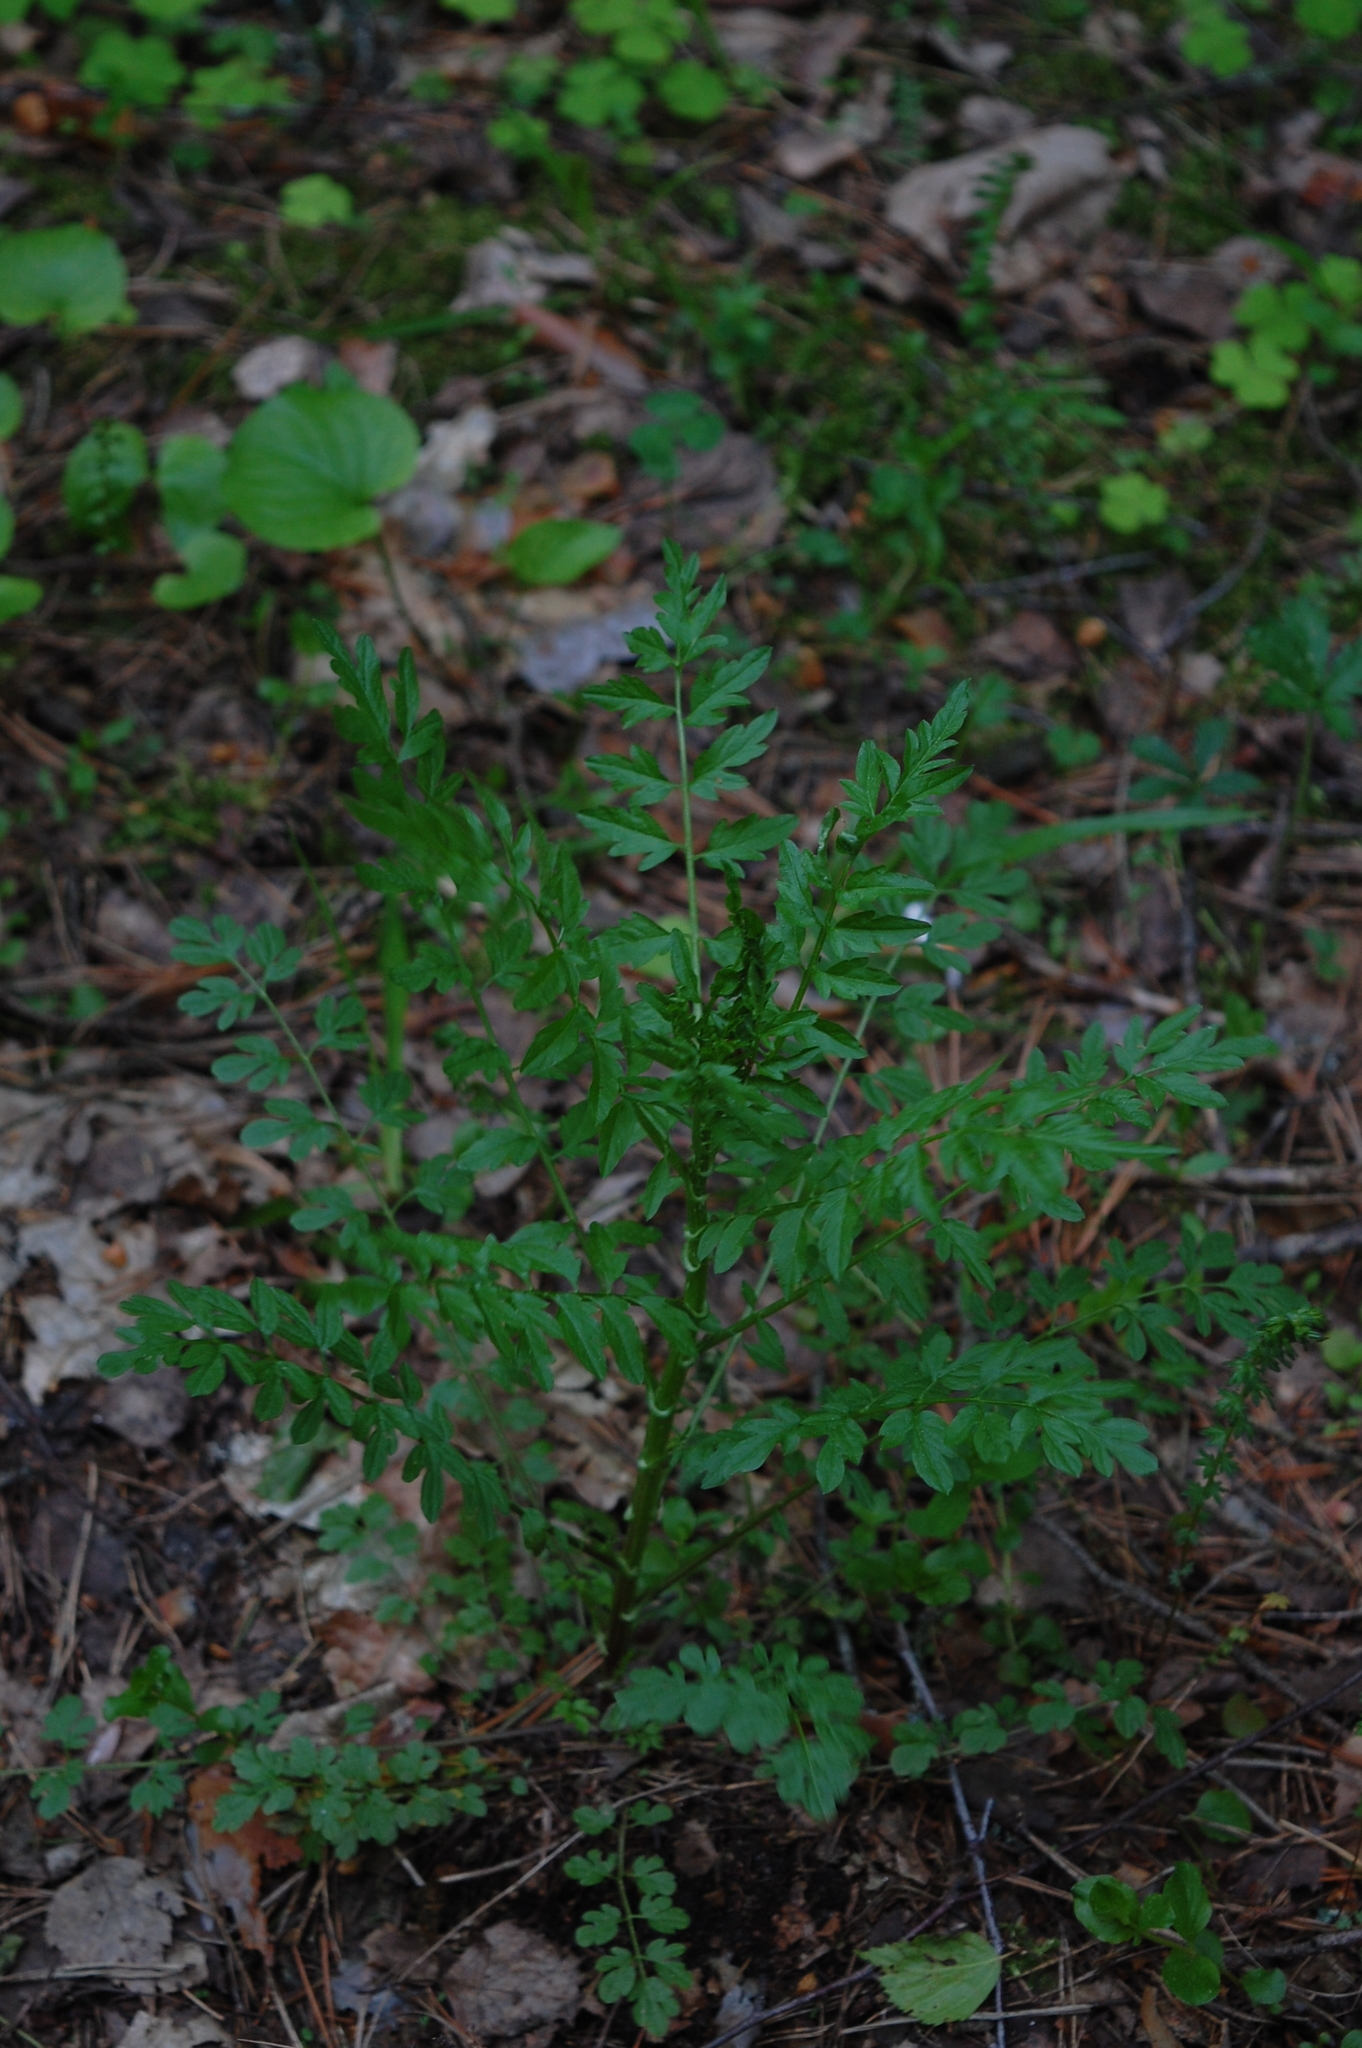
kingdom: Plantae
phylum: Tracheophyta
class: Magnoliopsida
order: Brassicales
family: Brassicaceae
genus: Cardamine
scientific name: Cardamine impatiens
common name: Narrow-leaved bitter-cress
